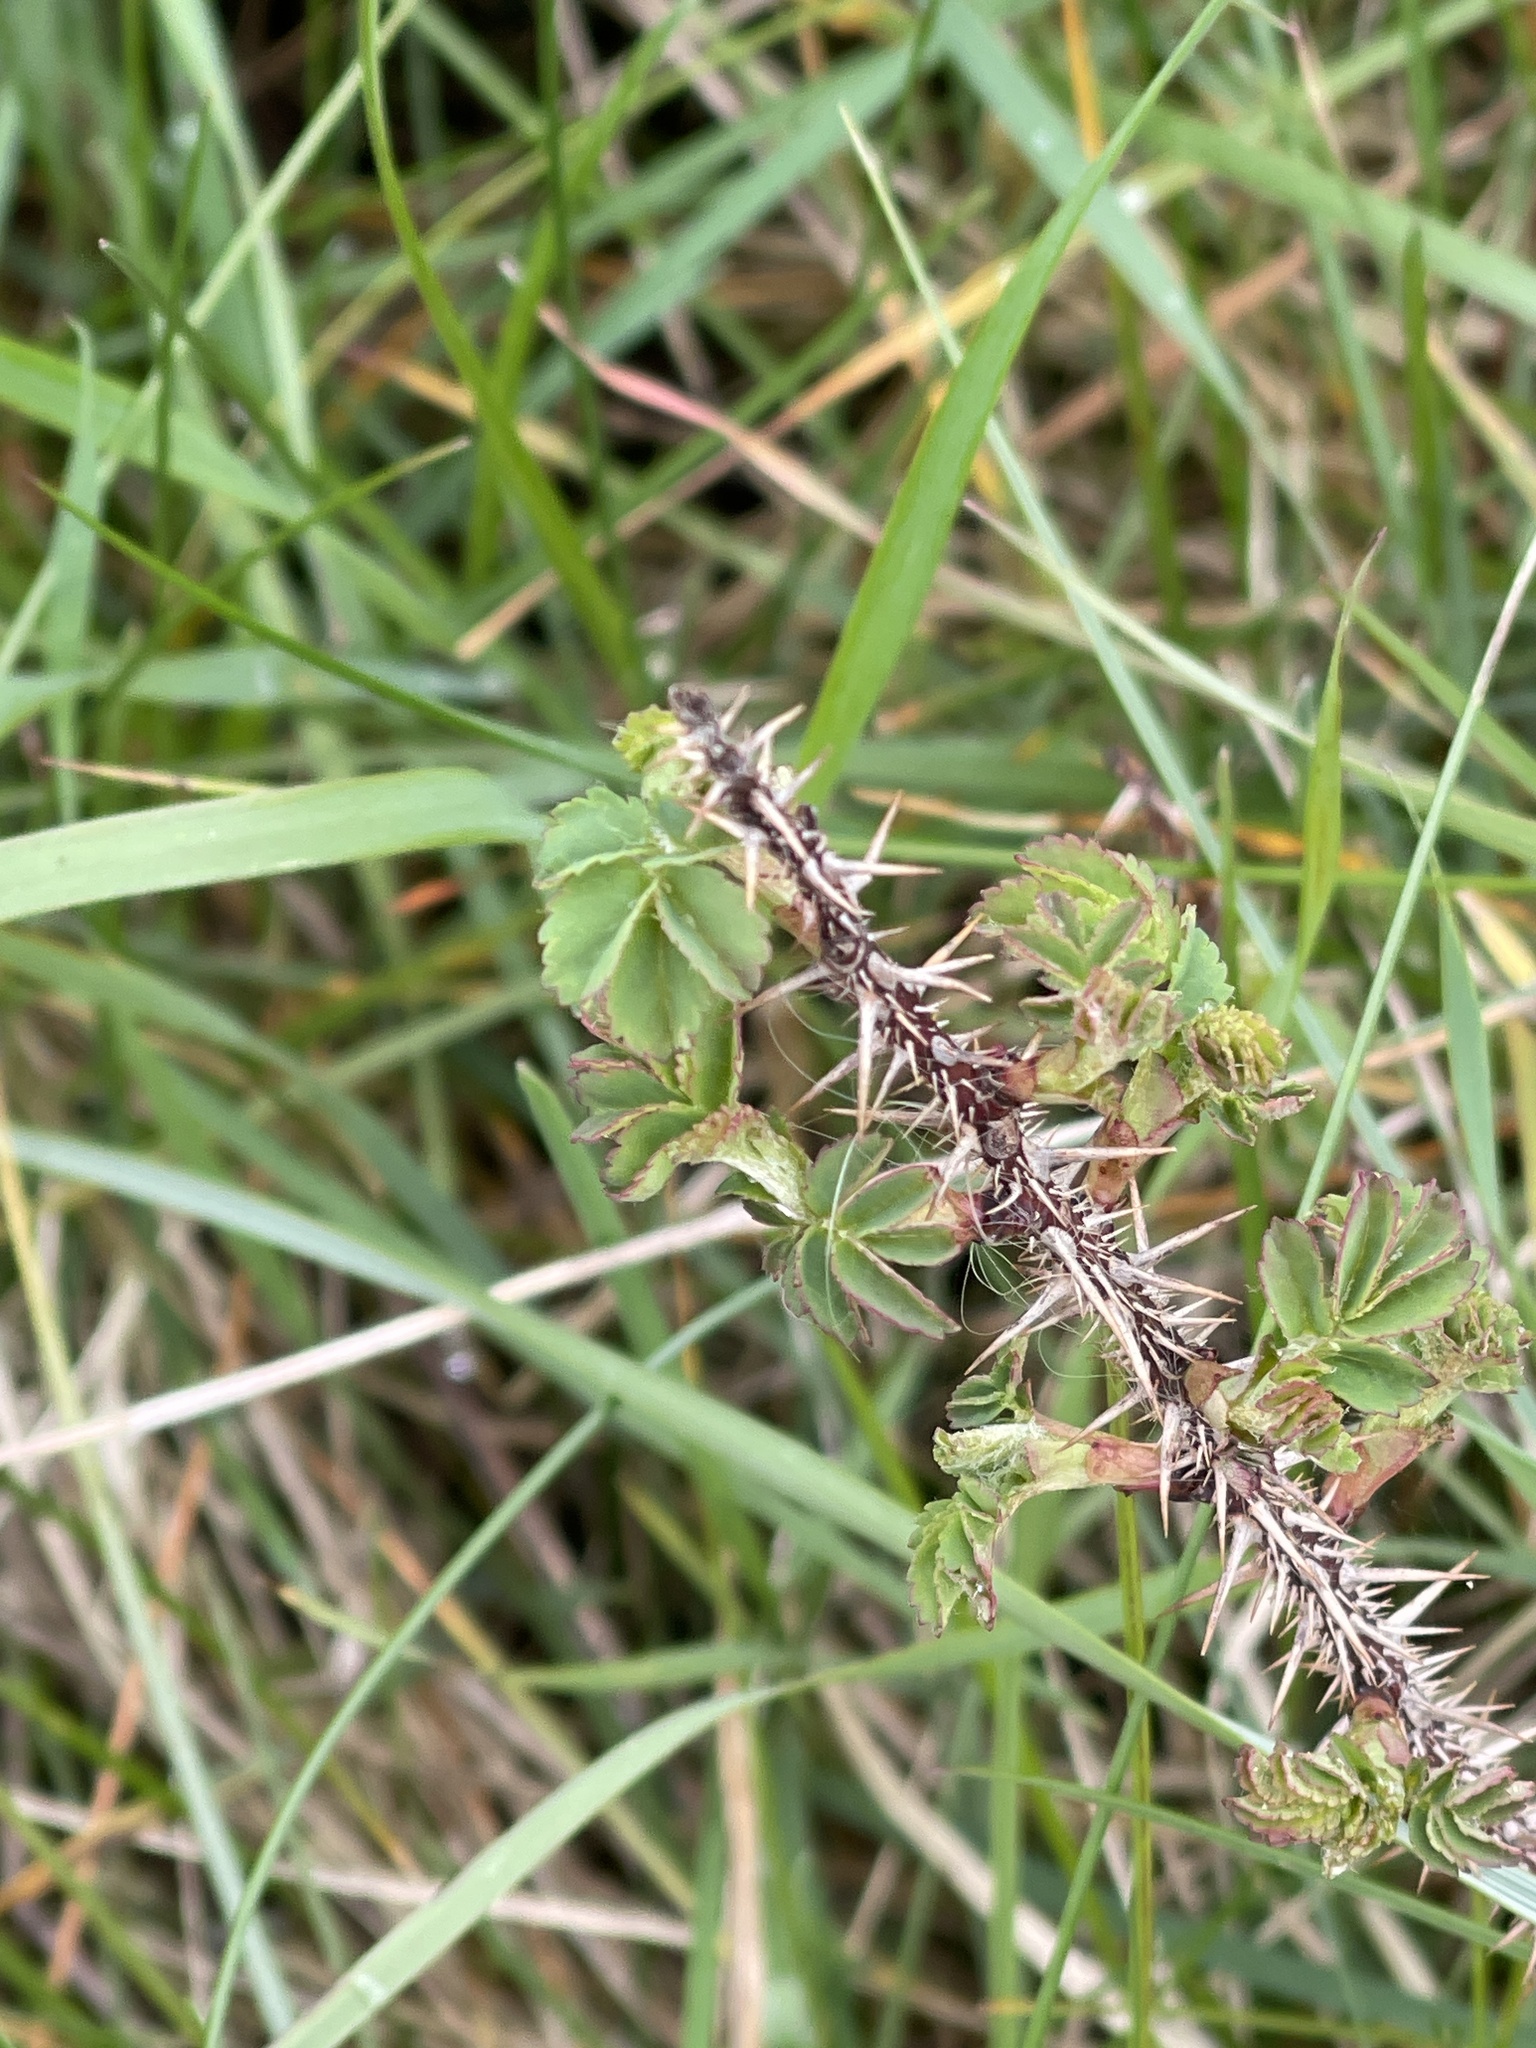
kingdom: Plantae
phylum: Tracheophyta
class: Magnoliopsida
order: Rosales
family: Rosaceae
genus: Rosa
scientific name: Rosa spinosissima
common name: Burnet rose
